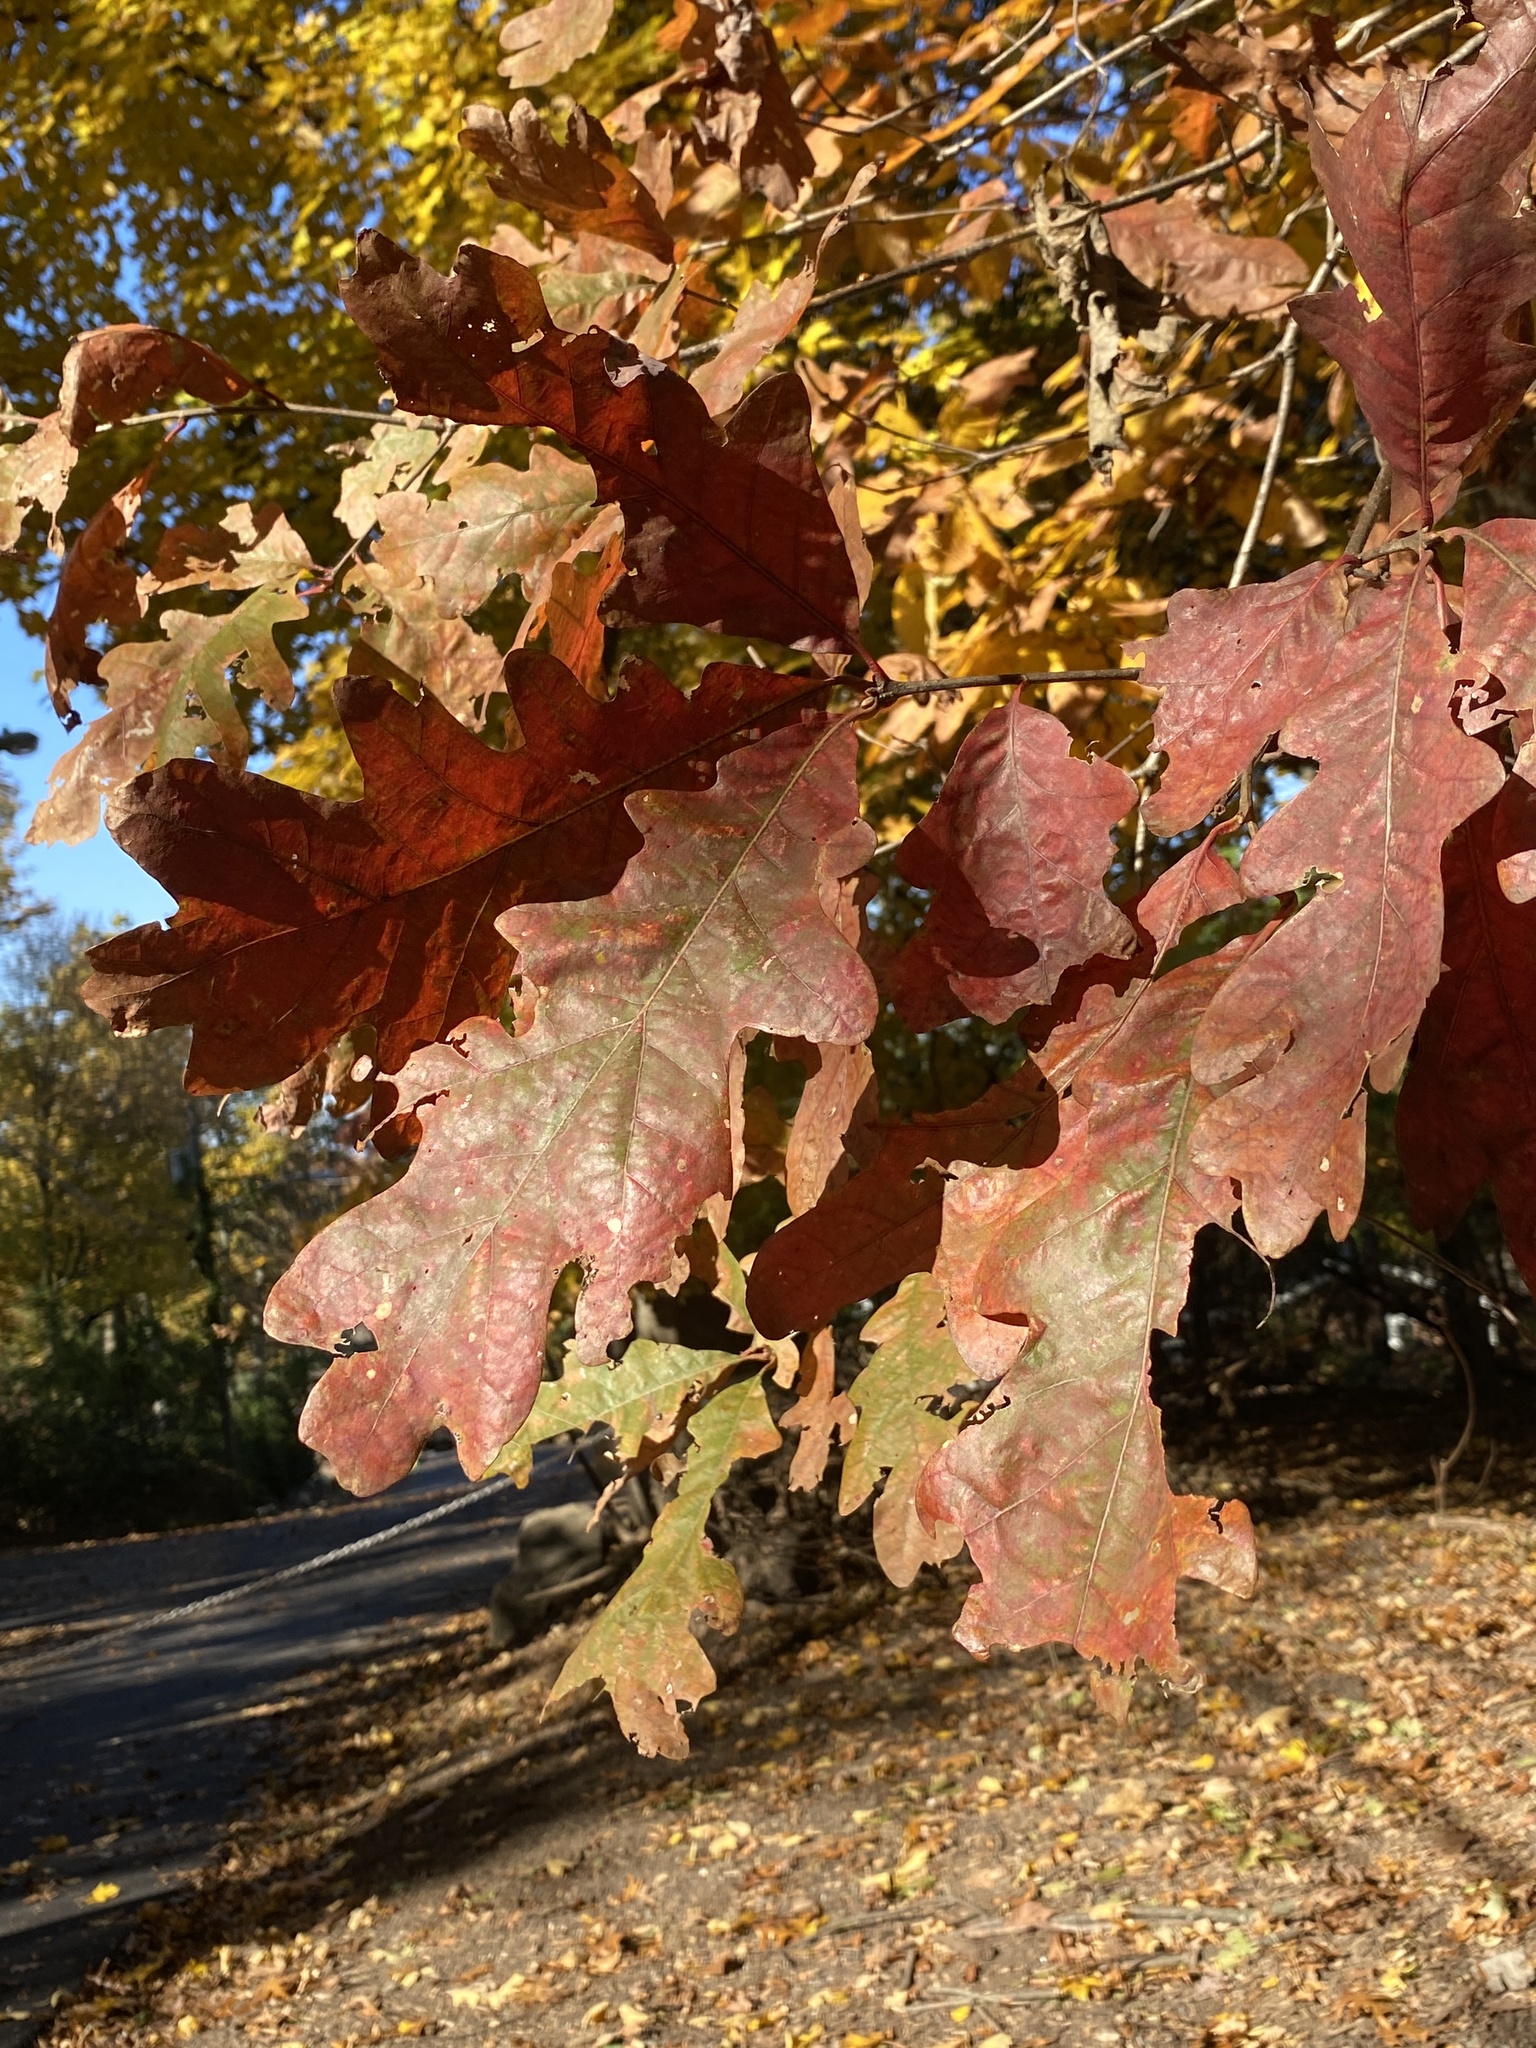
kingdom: Plantae
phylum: Tracheophyta
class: Magnoliopsida
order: Fagales
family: Fagaceae
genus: Quercus
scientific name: Quercus alba
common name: White oak
